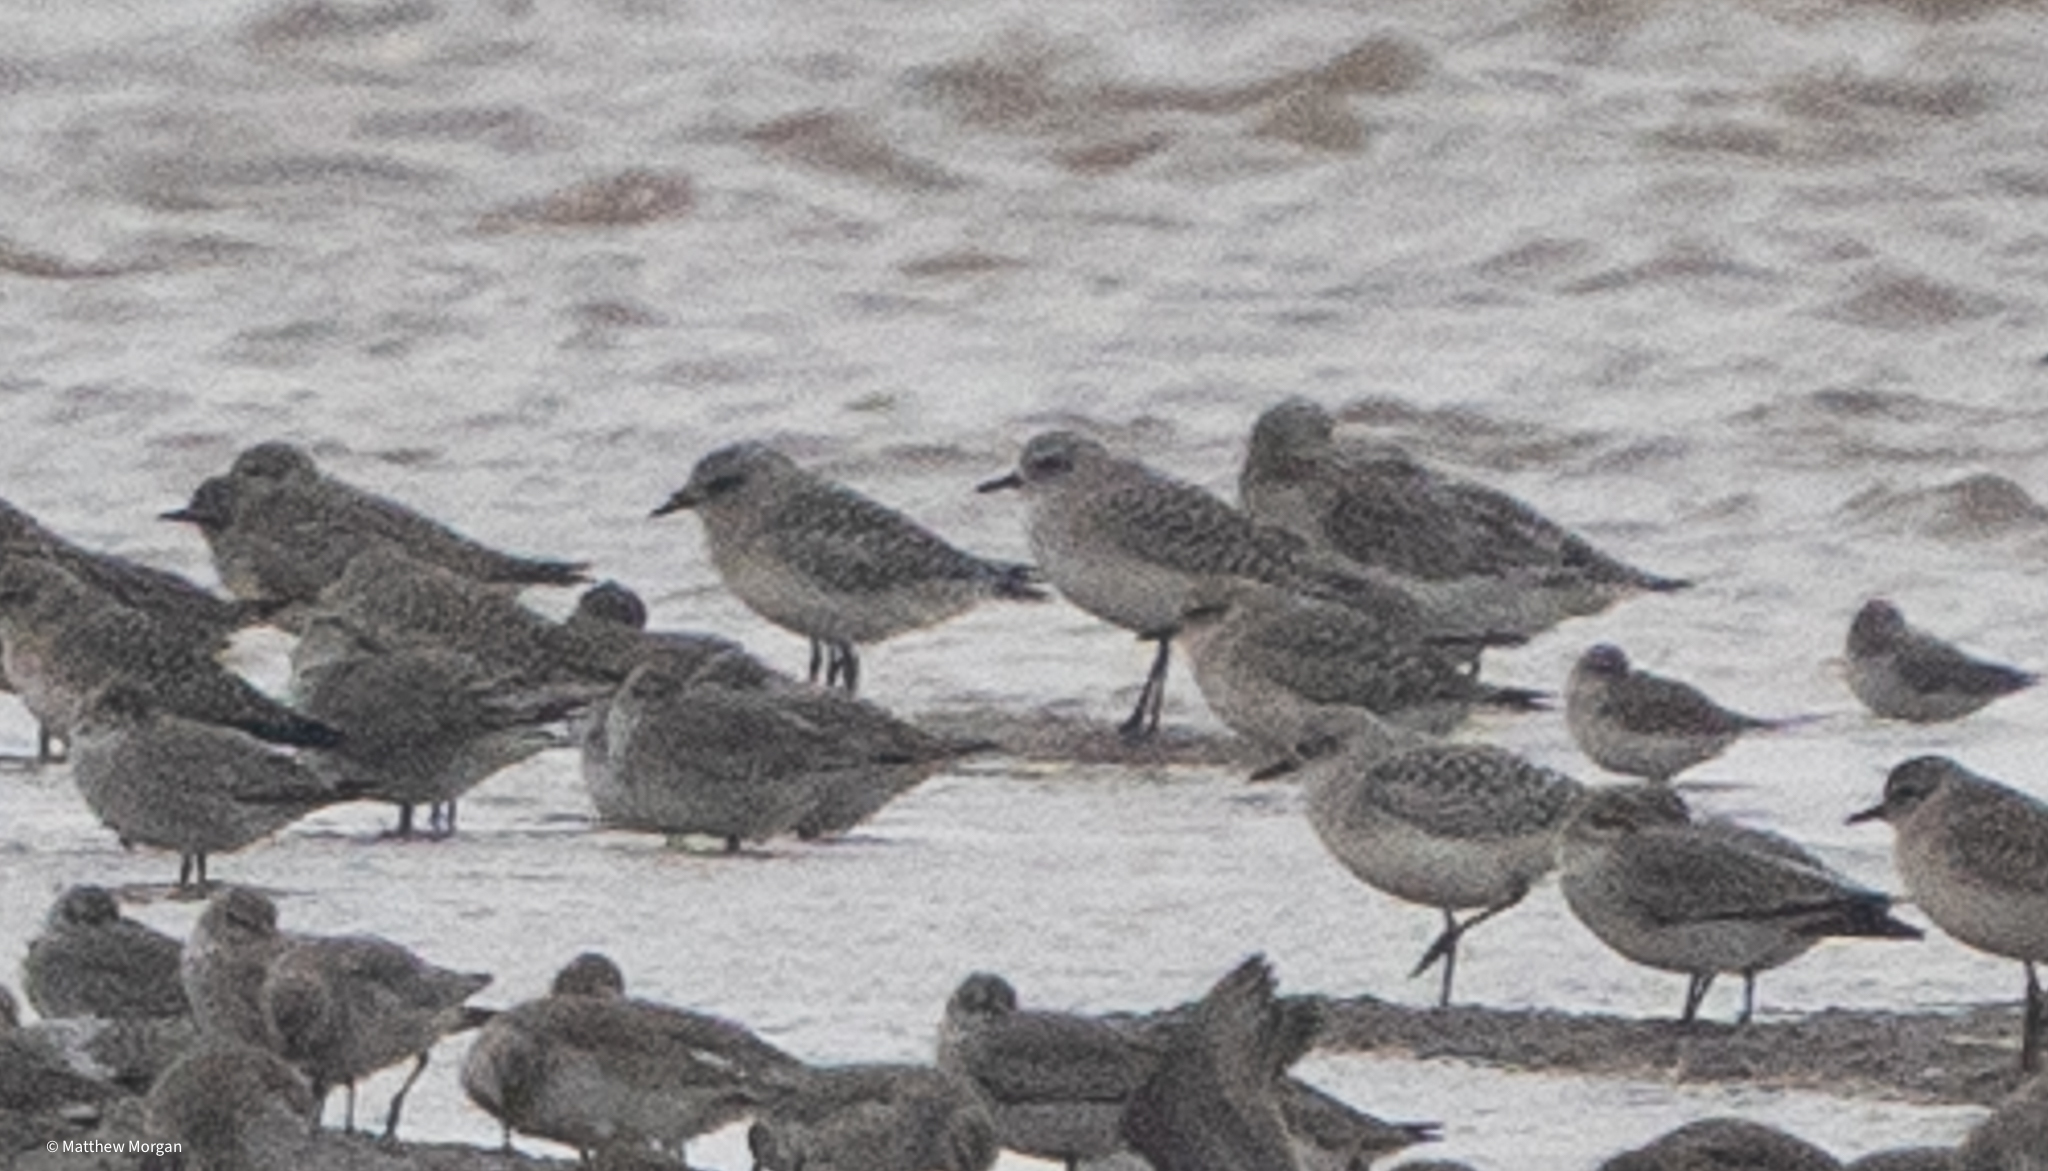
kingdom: Animalia
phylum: Chordata
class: Aves
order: Charadriiformes
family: Charadriidae
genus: Pluvialis
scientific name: Pluvialis squatarola
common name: Grey plover
